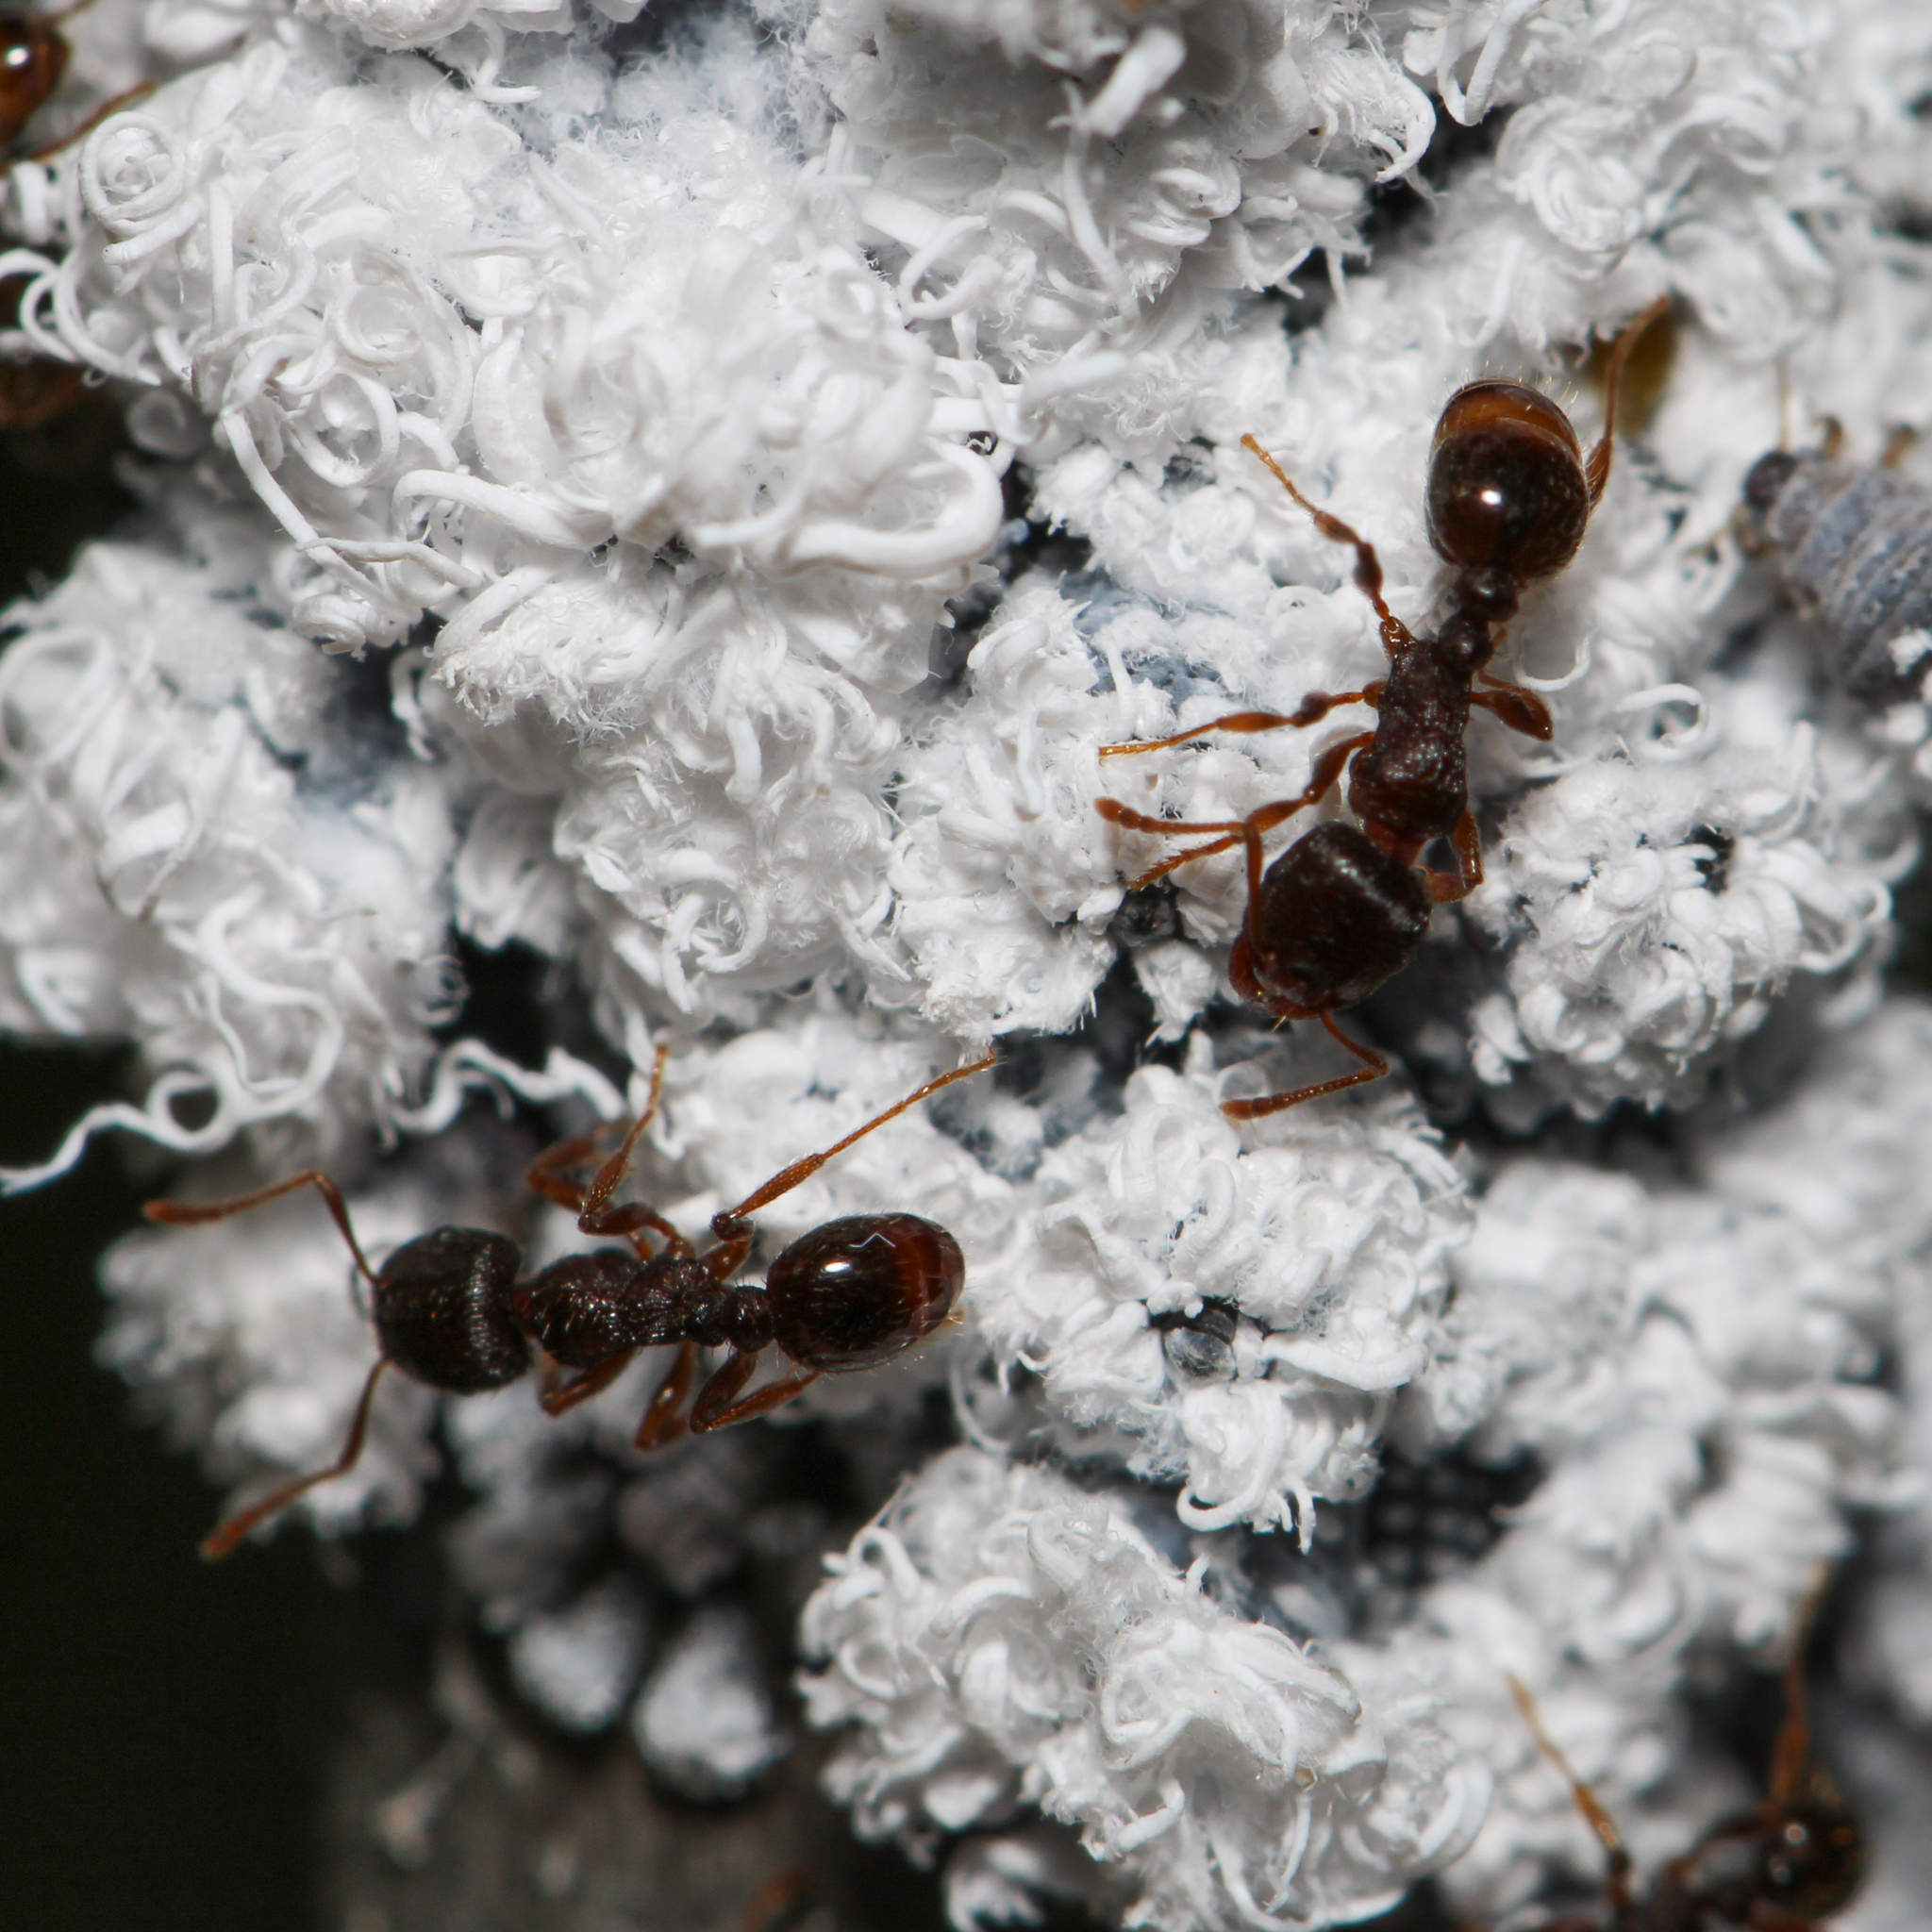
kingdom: Animalia
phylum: Arthropoda
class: Insecta
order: Hymenoptera
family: Formicidae
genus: Tetramorium
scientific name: Tetramorium immigrans
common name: Pavement ant
